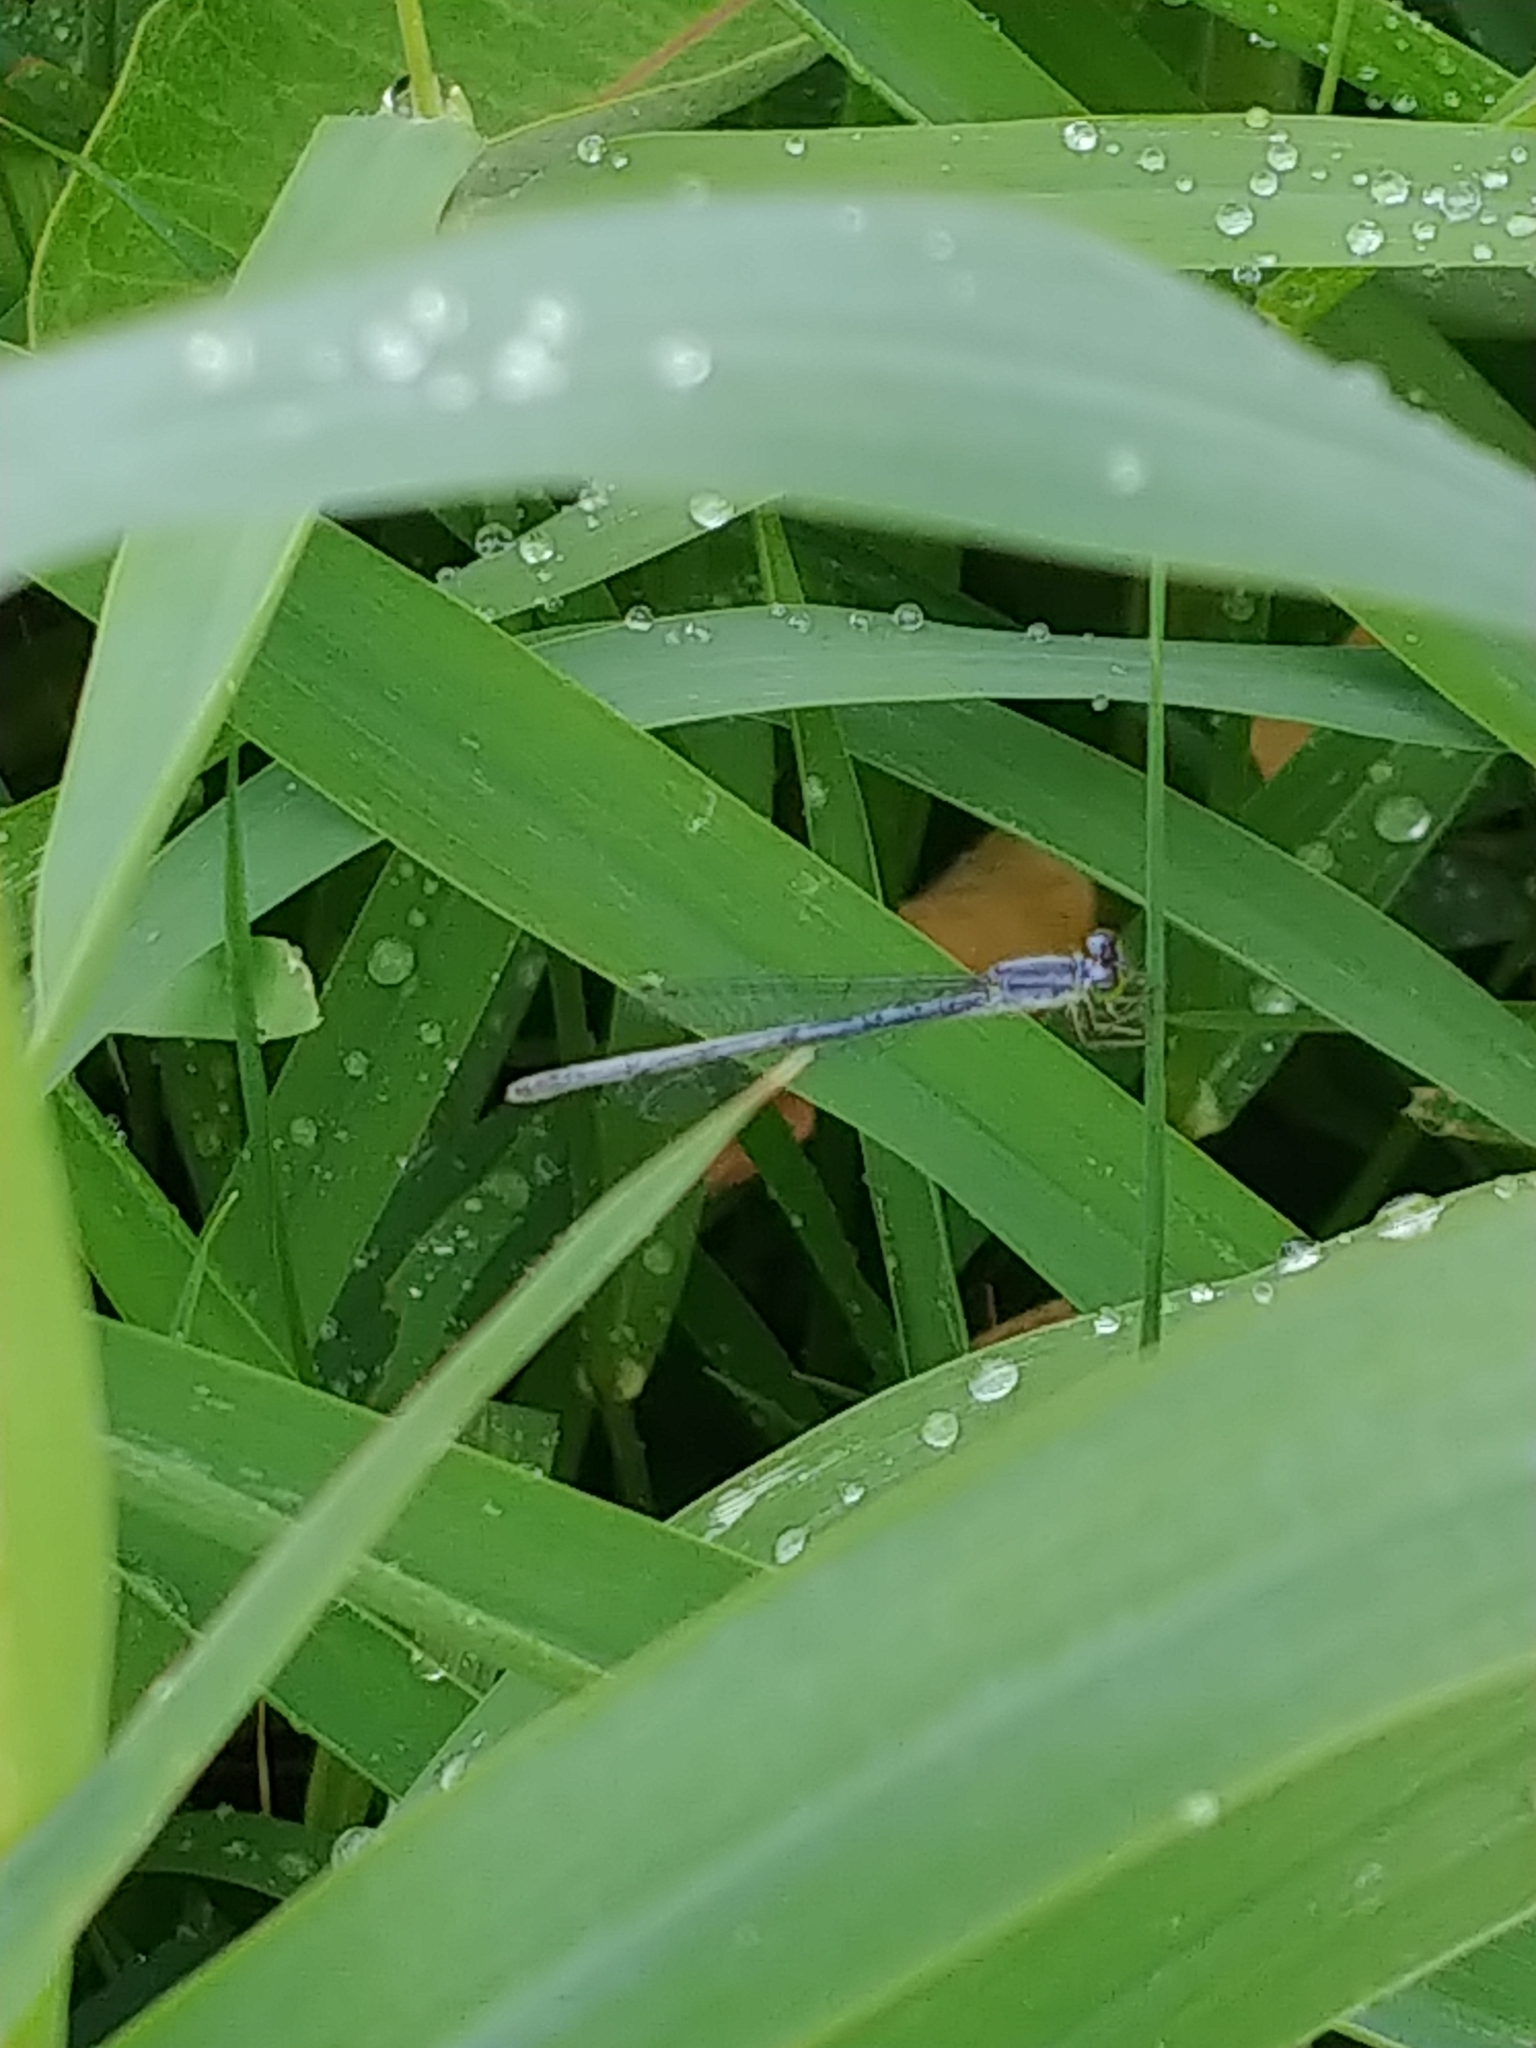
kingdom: Animalia
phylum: Arthropoda
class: Insecta
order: Odonata
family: Coenagrionidae
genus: Ischnura
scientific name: Ischnura verticalis
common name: Eastern forktail
